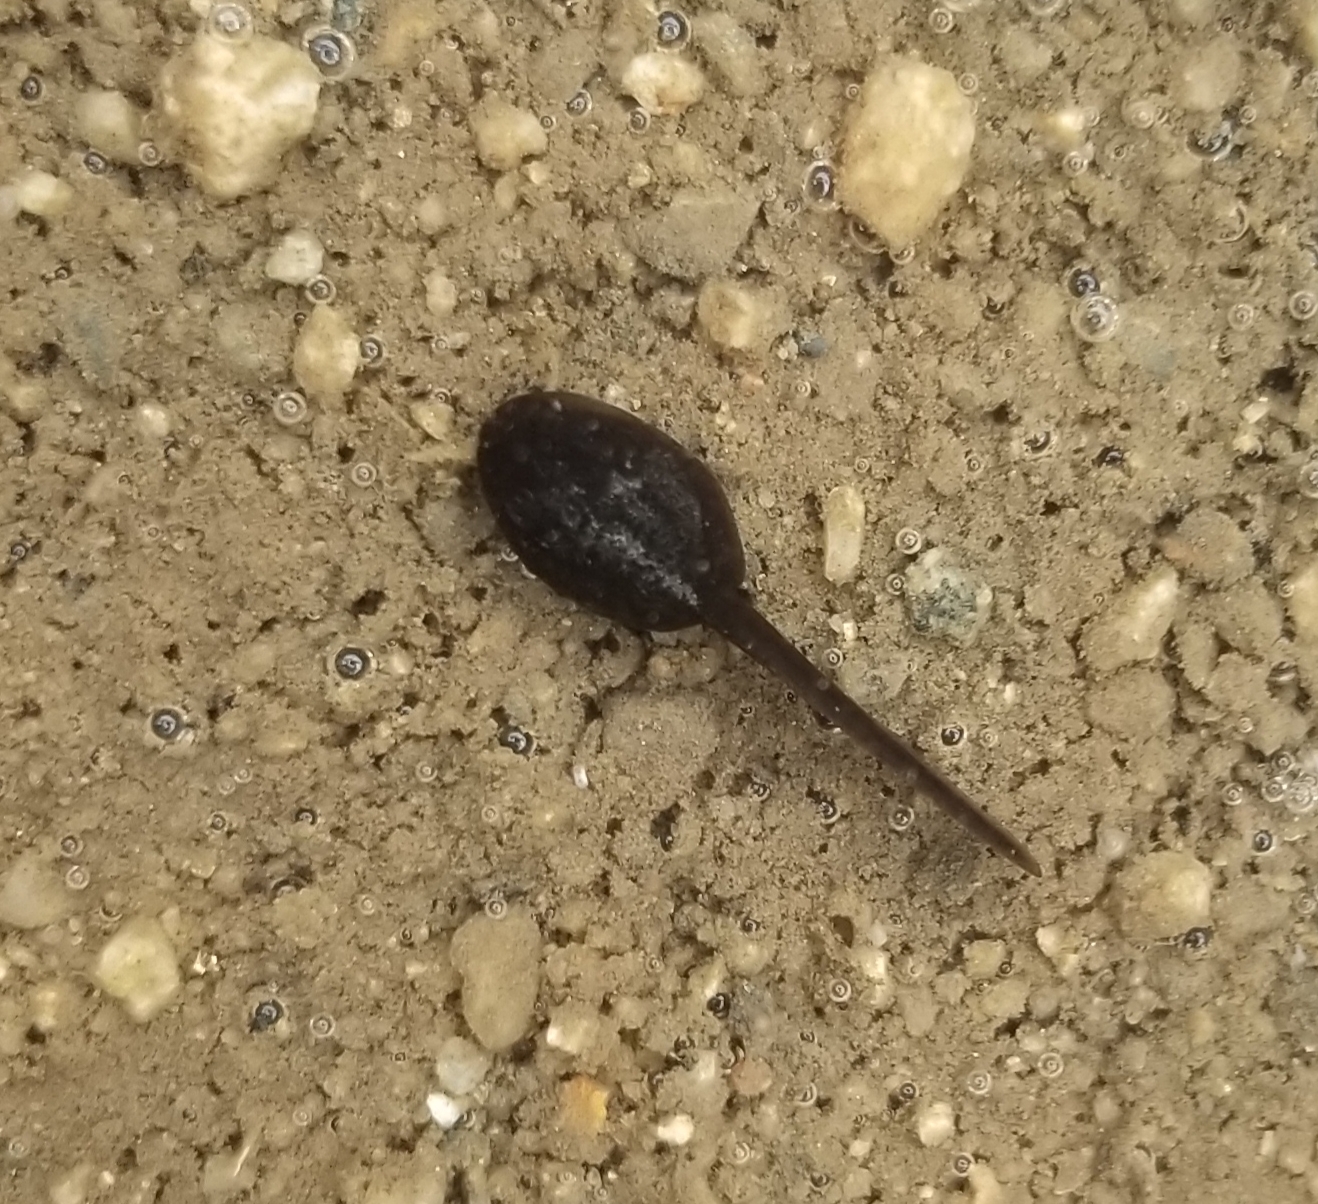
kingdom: Animalia
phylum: Chordata
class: Amphibia
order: Anura
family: Bufonidae
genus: Anaxyrus
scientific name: Anaxyrus boreas
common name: Western toad
